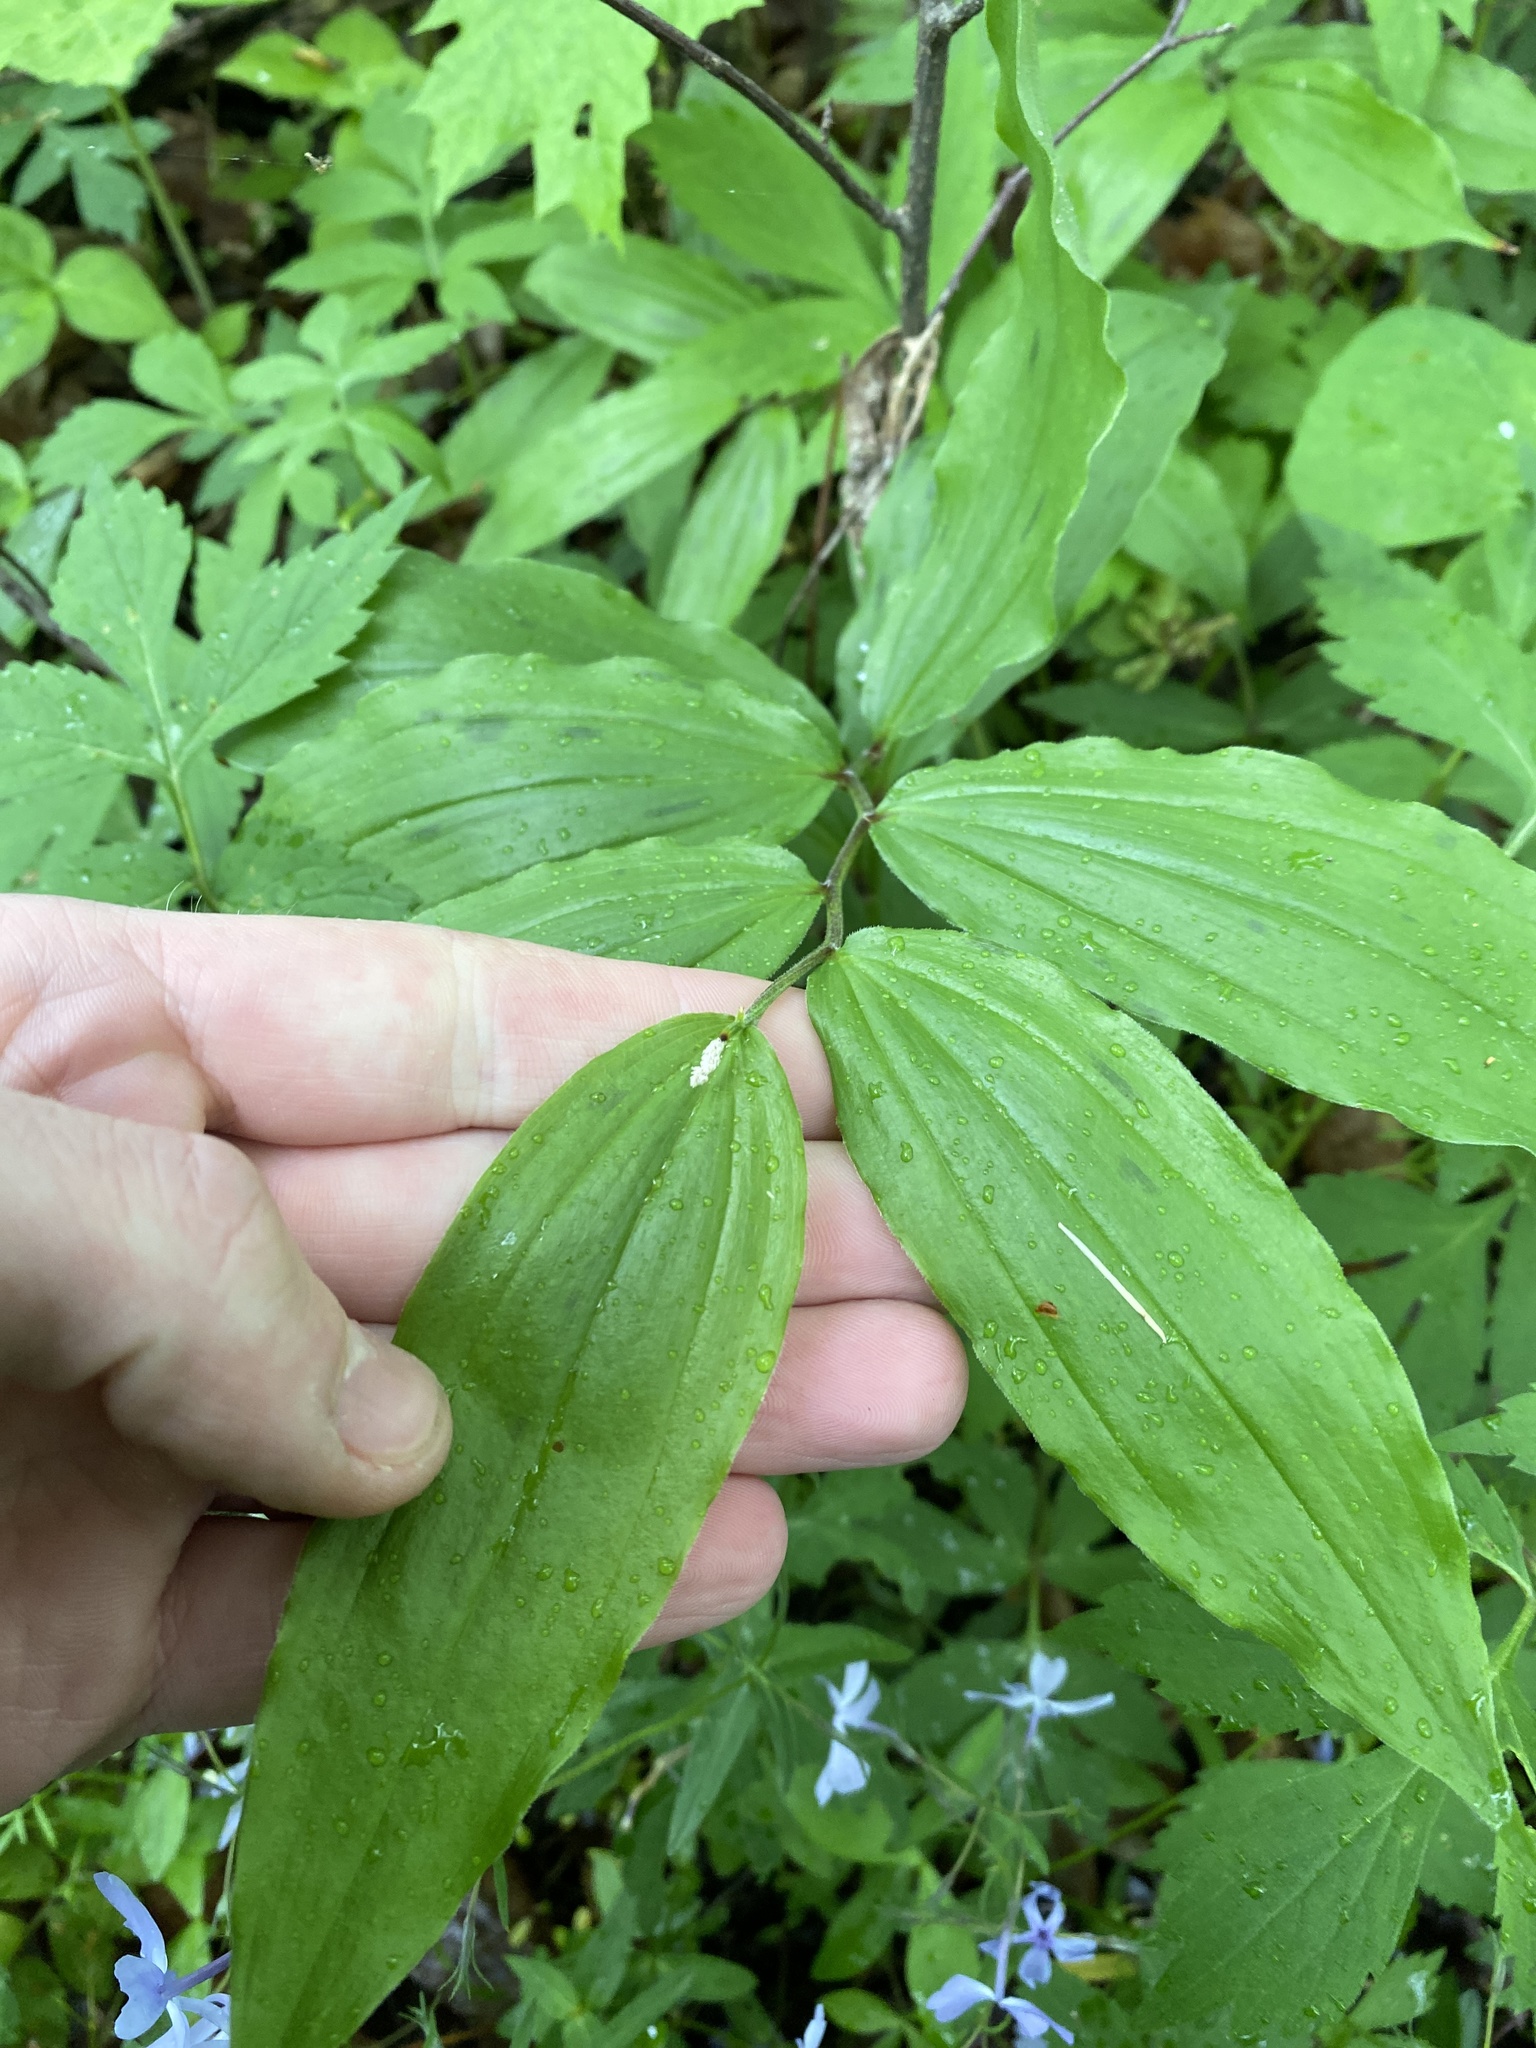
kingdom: Plantae
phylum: Tracheophyta
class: Liliopsida
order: Asparagales
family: Asparagaceae
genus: Maianthemum
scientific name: Maianthemum racemosum
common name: False spikenard
